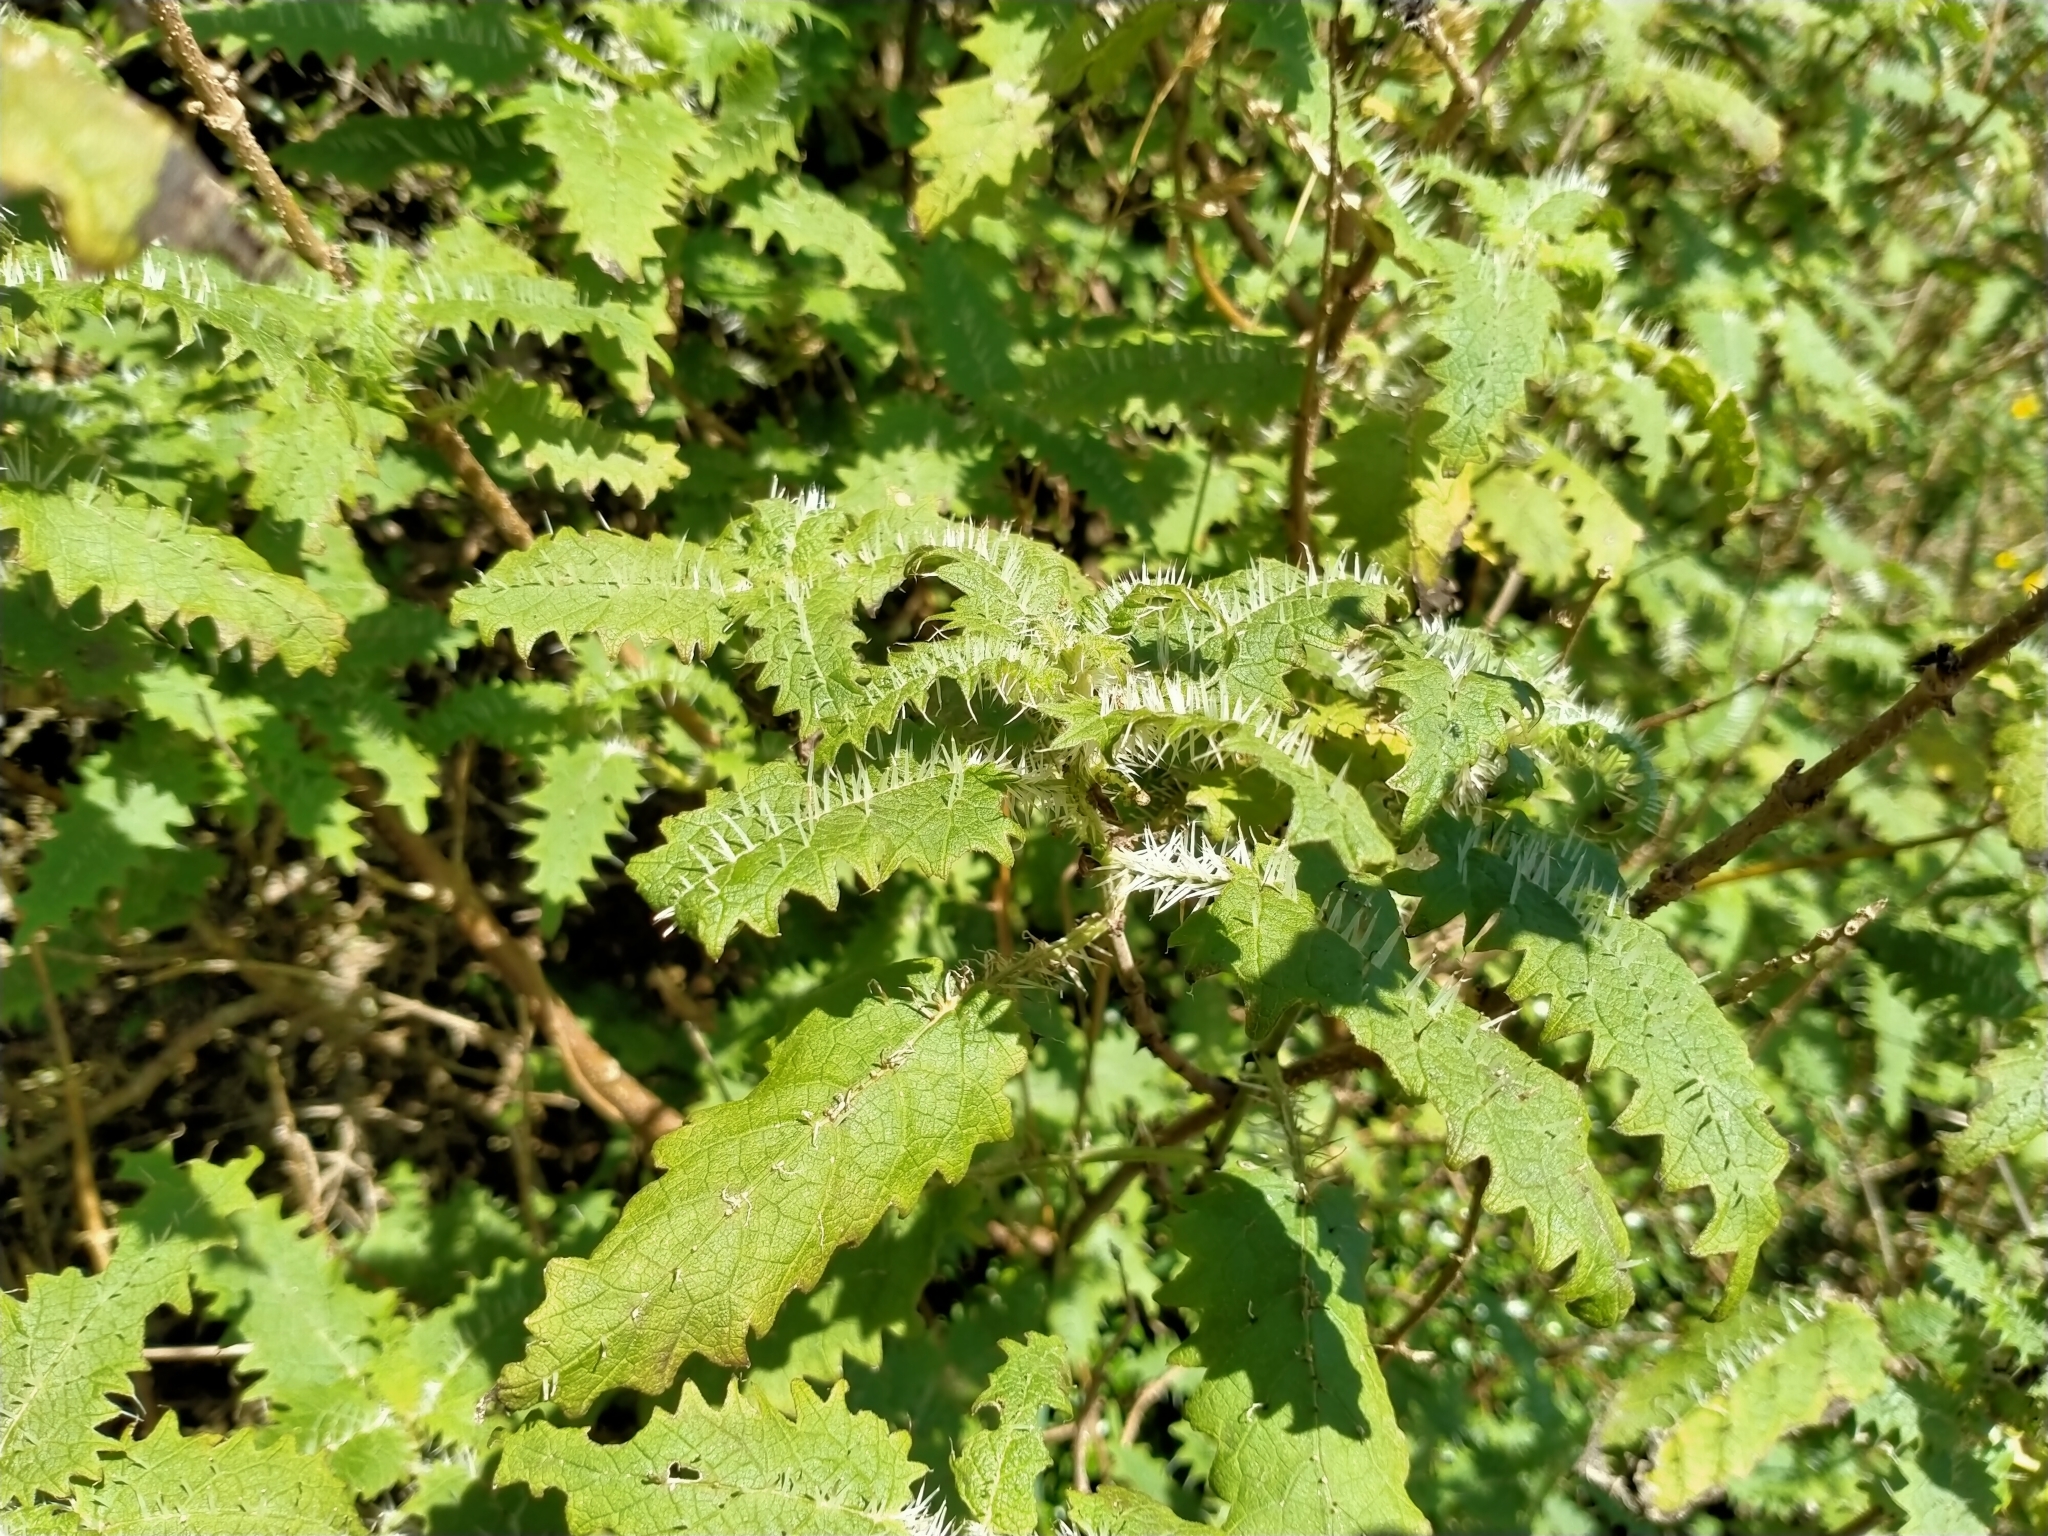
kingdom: Plantae
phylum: Tracheophyta
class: Magnoliopsida
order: Rosales
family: Urticaceae
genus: Urtica
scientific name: Urtica ferox
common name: Tree nettle
